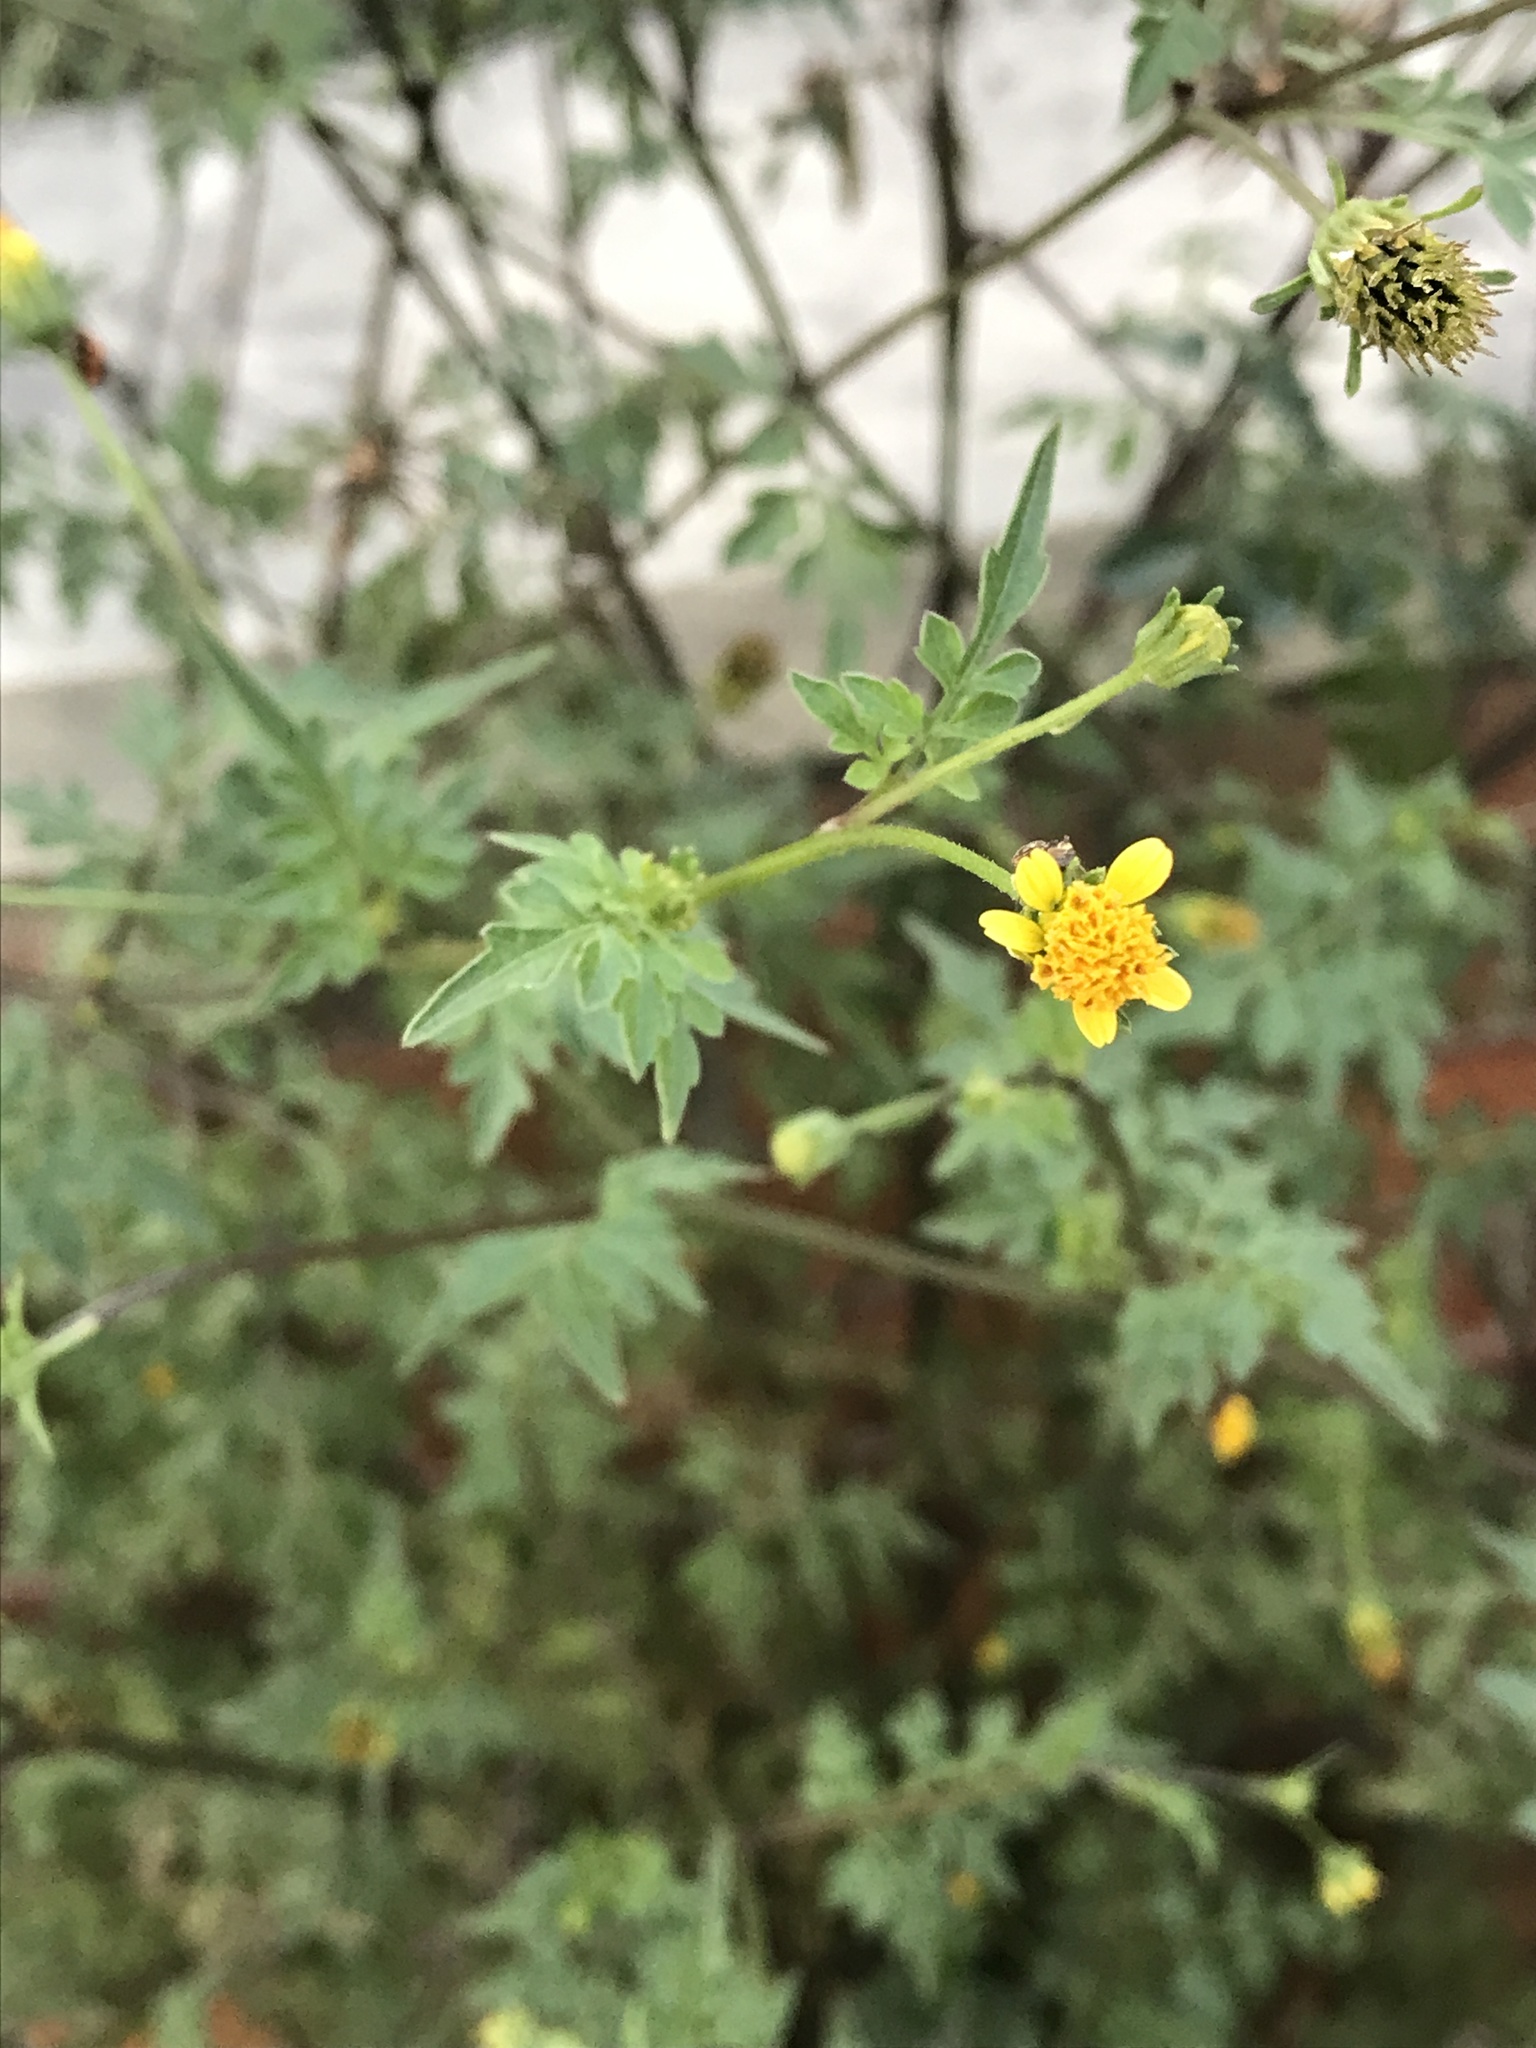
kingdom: Plantae
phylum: Tracheophyta
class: Magnoliopsida
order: Asterales
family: Asteraceae
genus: Bidens
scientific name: Bidens bipinnata
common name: Spanish-needles
